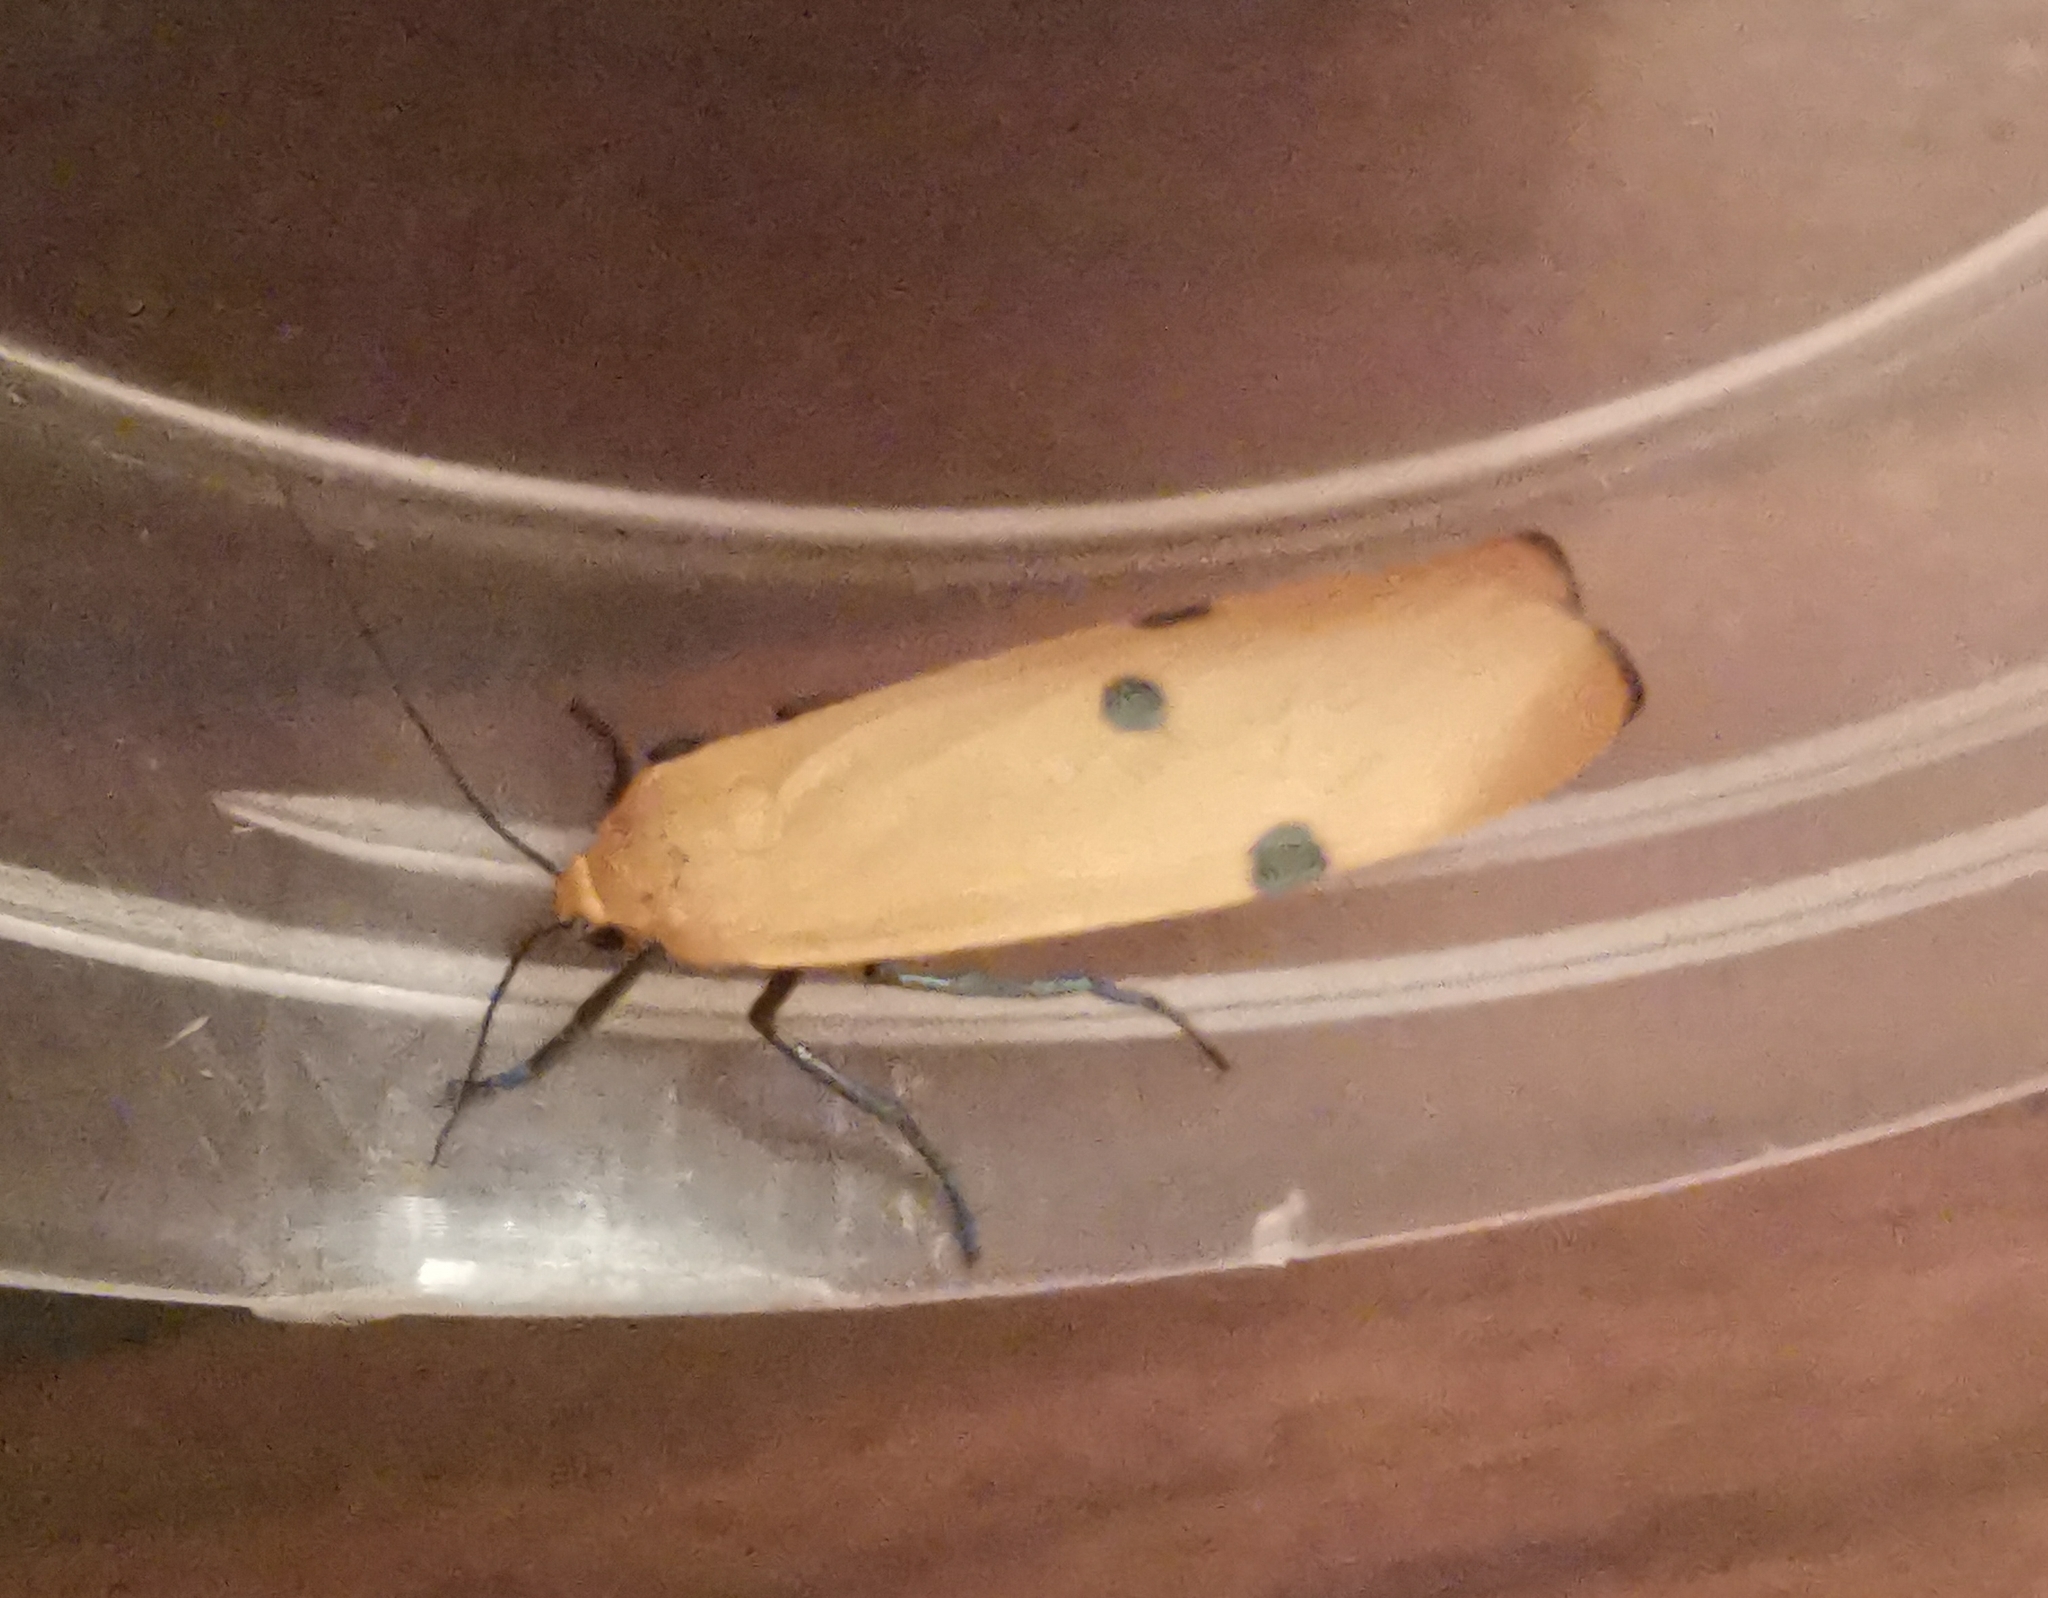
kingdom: Animalia
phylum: Arthropoda
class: Insecta
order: Lepidoptera
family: Erebidae
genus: Lithosia
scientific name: Lithosia quadra
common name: Four-spotted footman
